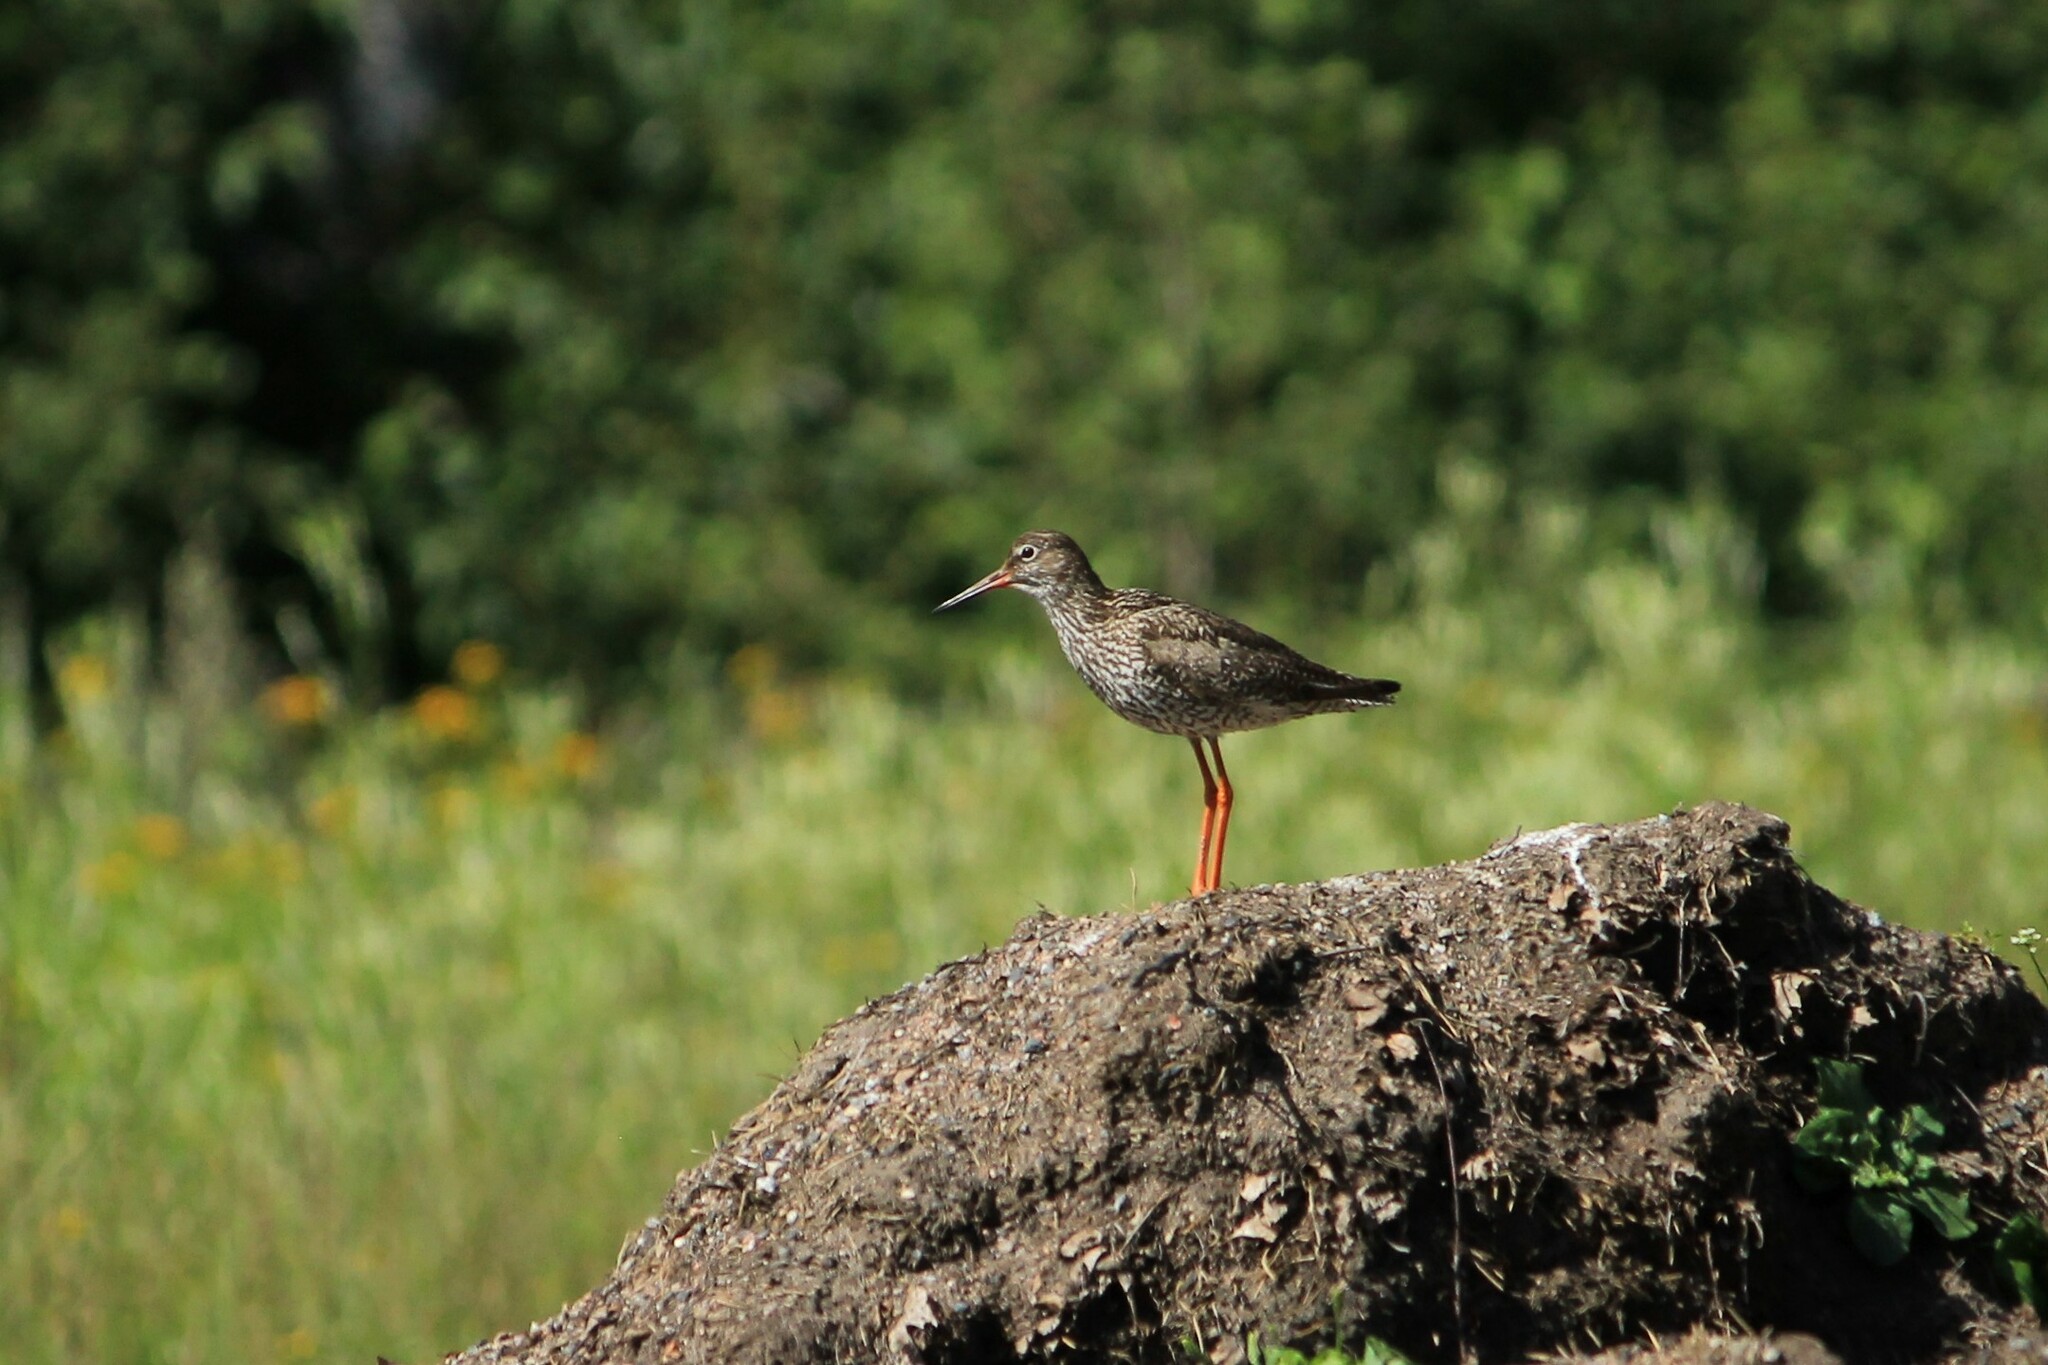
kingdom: Animalia
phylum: Chordata
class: Aves
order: Charadriiformes
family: Scolopacidae
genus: Tringa
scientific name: Tringa totanus
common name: Common redshank
